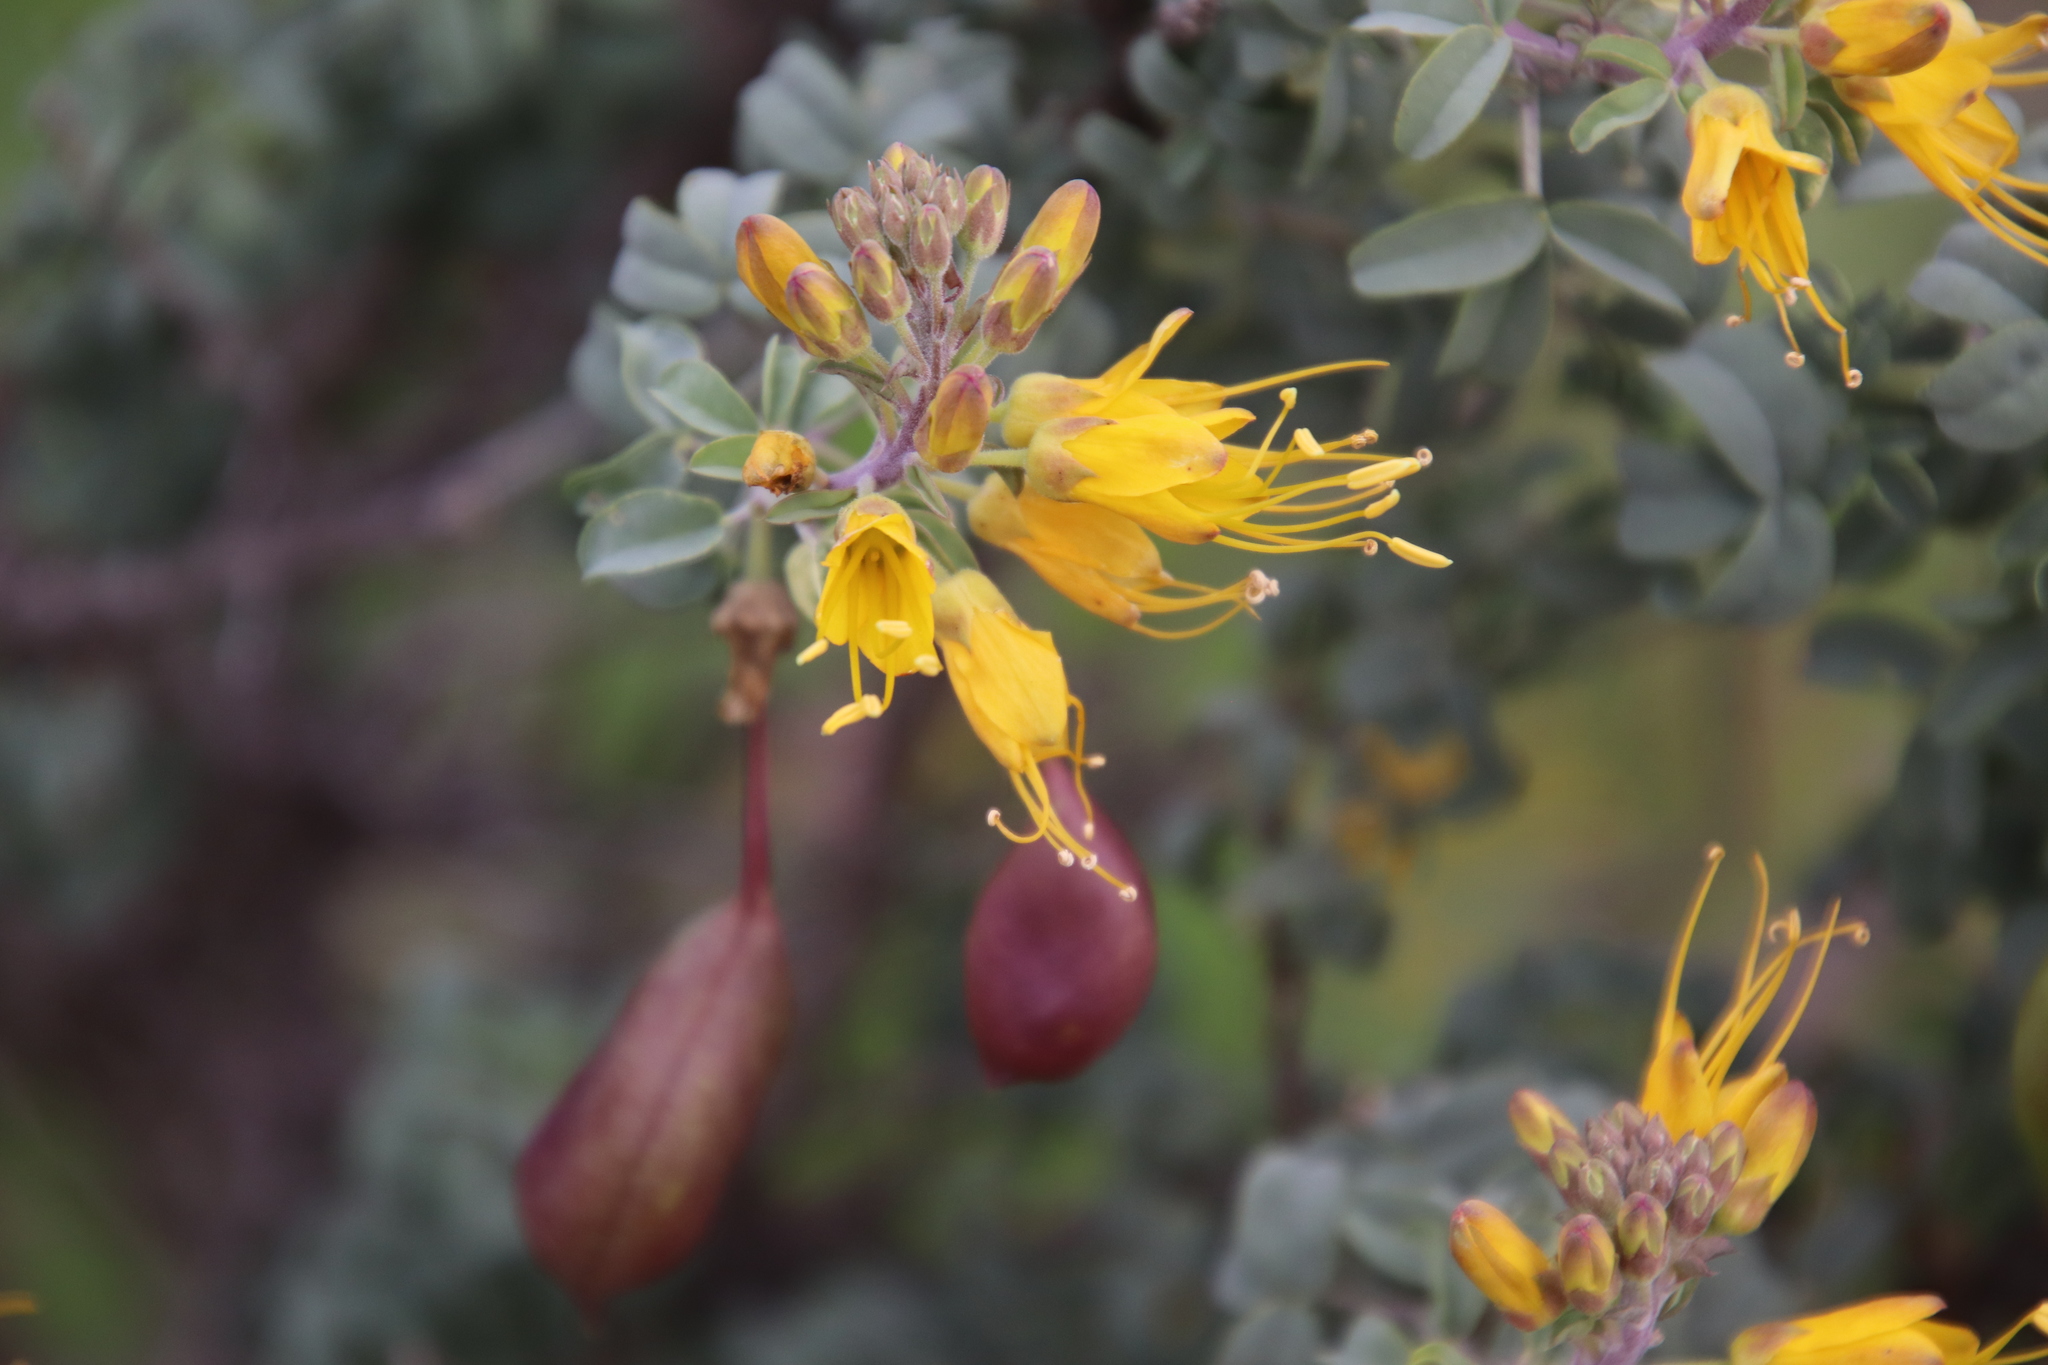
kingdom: Plantae
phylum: Tracheophyta
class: Magnoliopsida
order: Brassicales
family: Cleomaceae
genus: Cleomella
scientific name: Cleomella arborea
